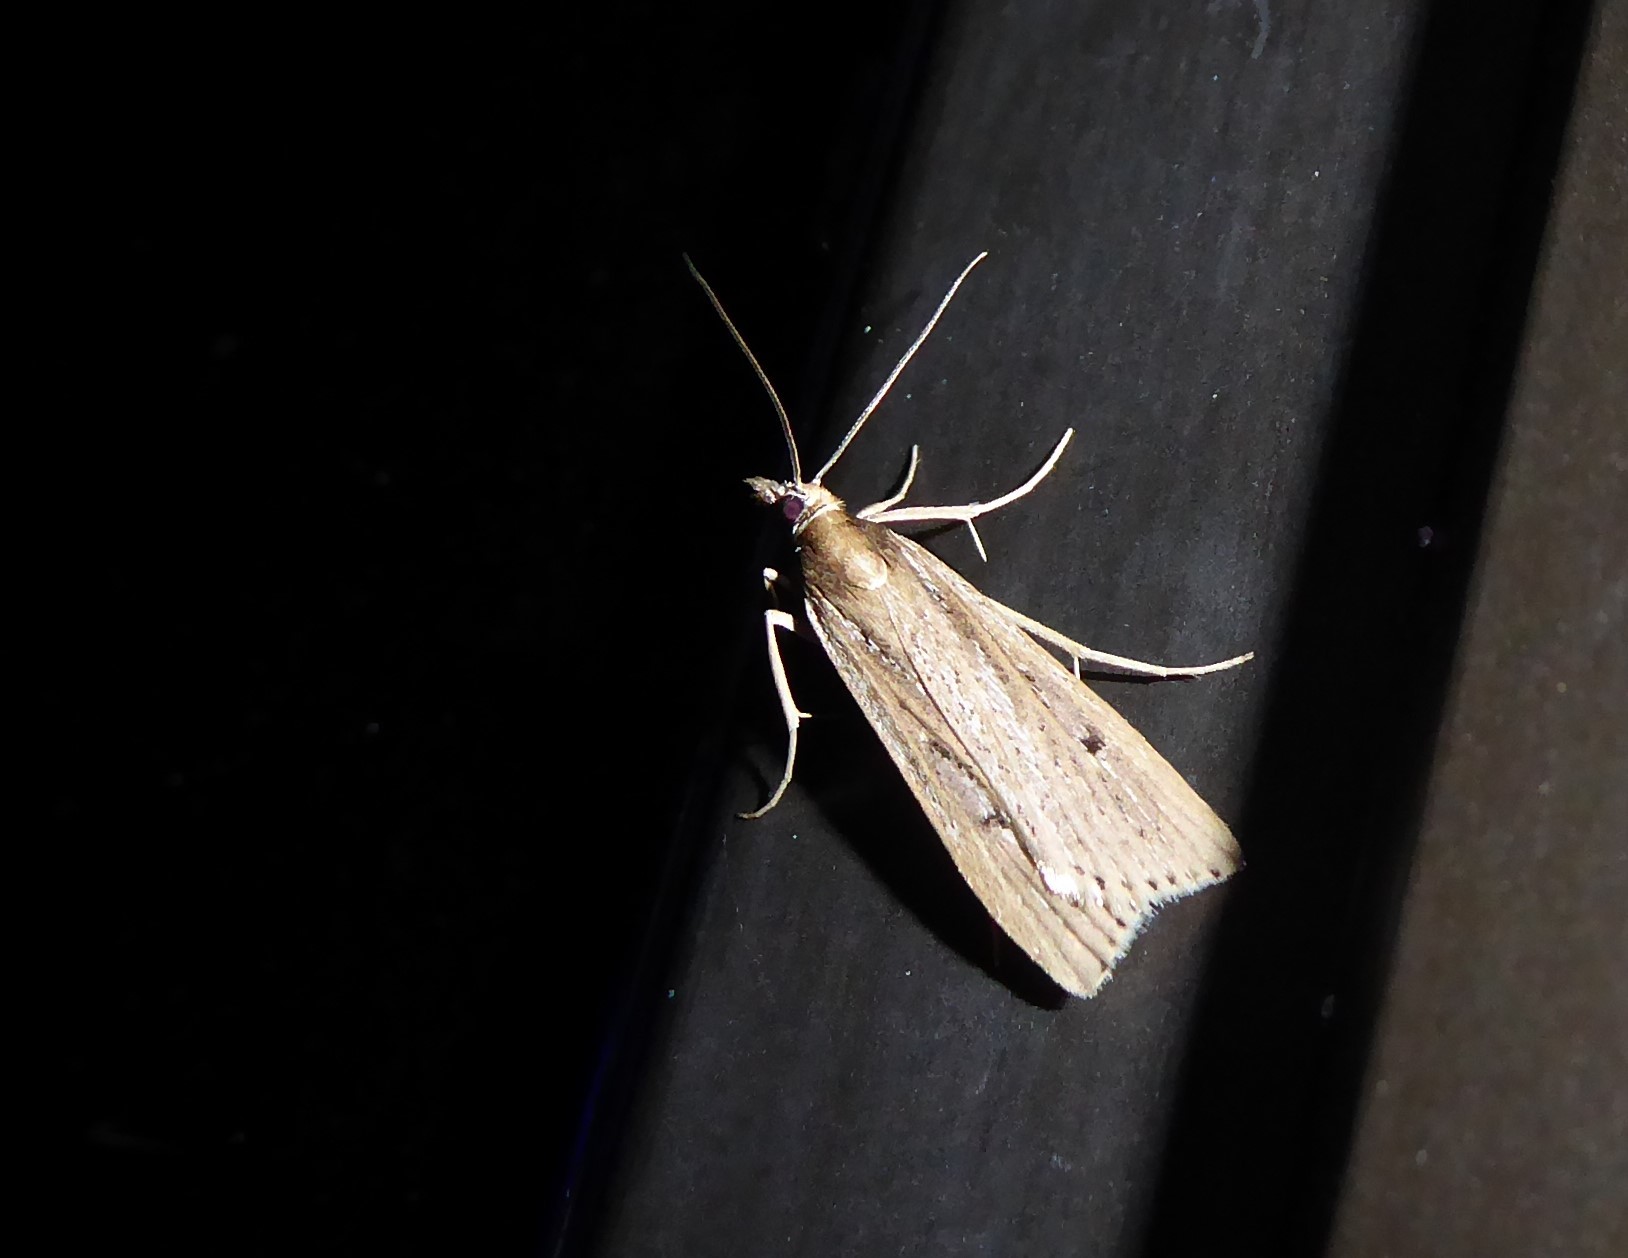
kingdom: Animalia
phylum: Arthropoda
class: Insecta
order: Lepidoptera
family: Crambidae
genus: Eudonia
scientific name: Eudonia sabulosella
